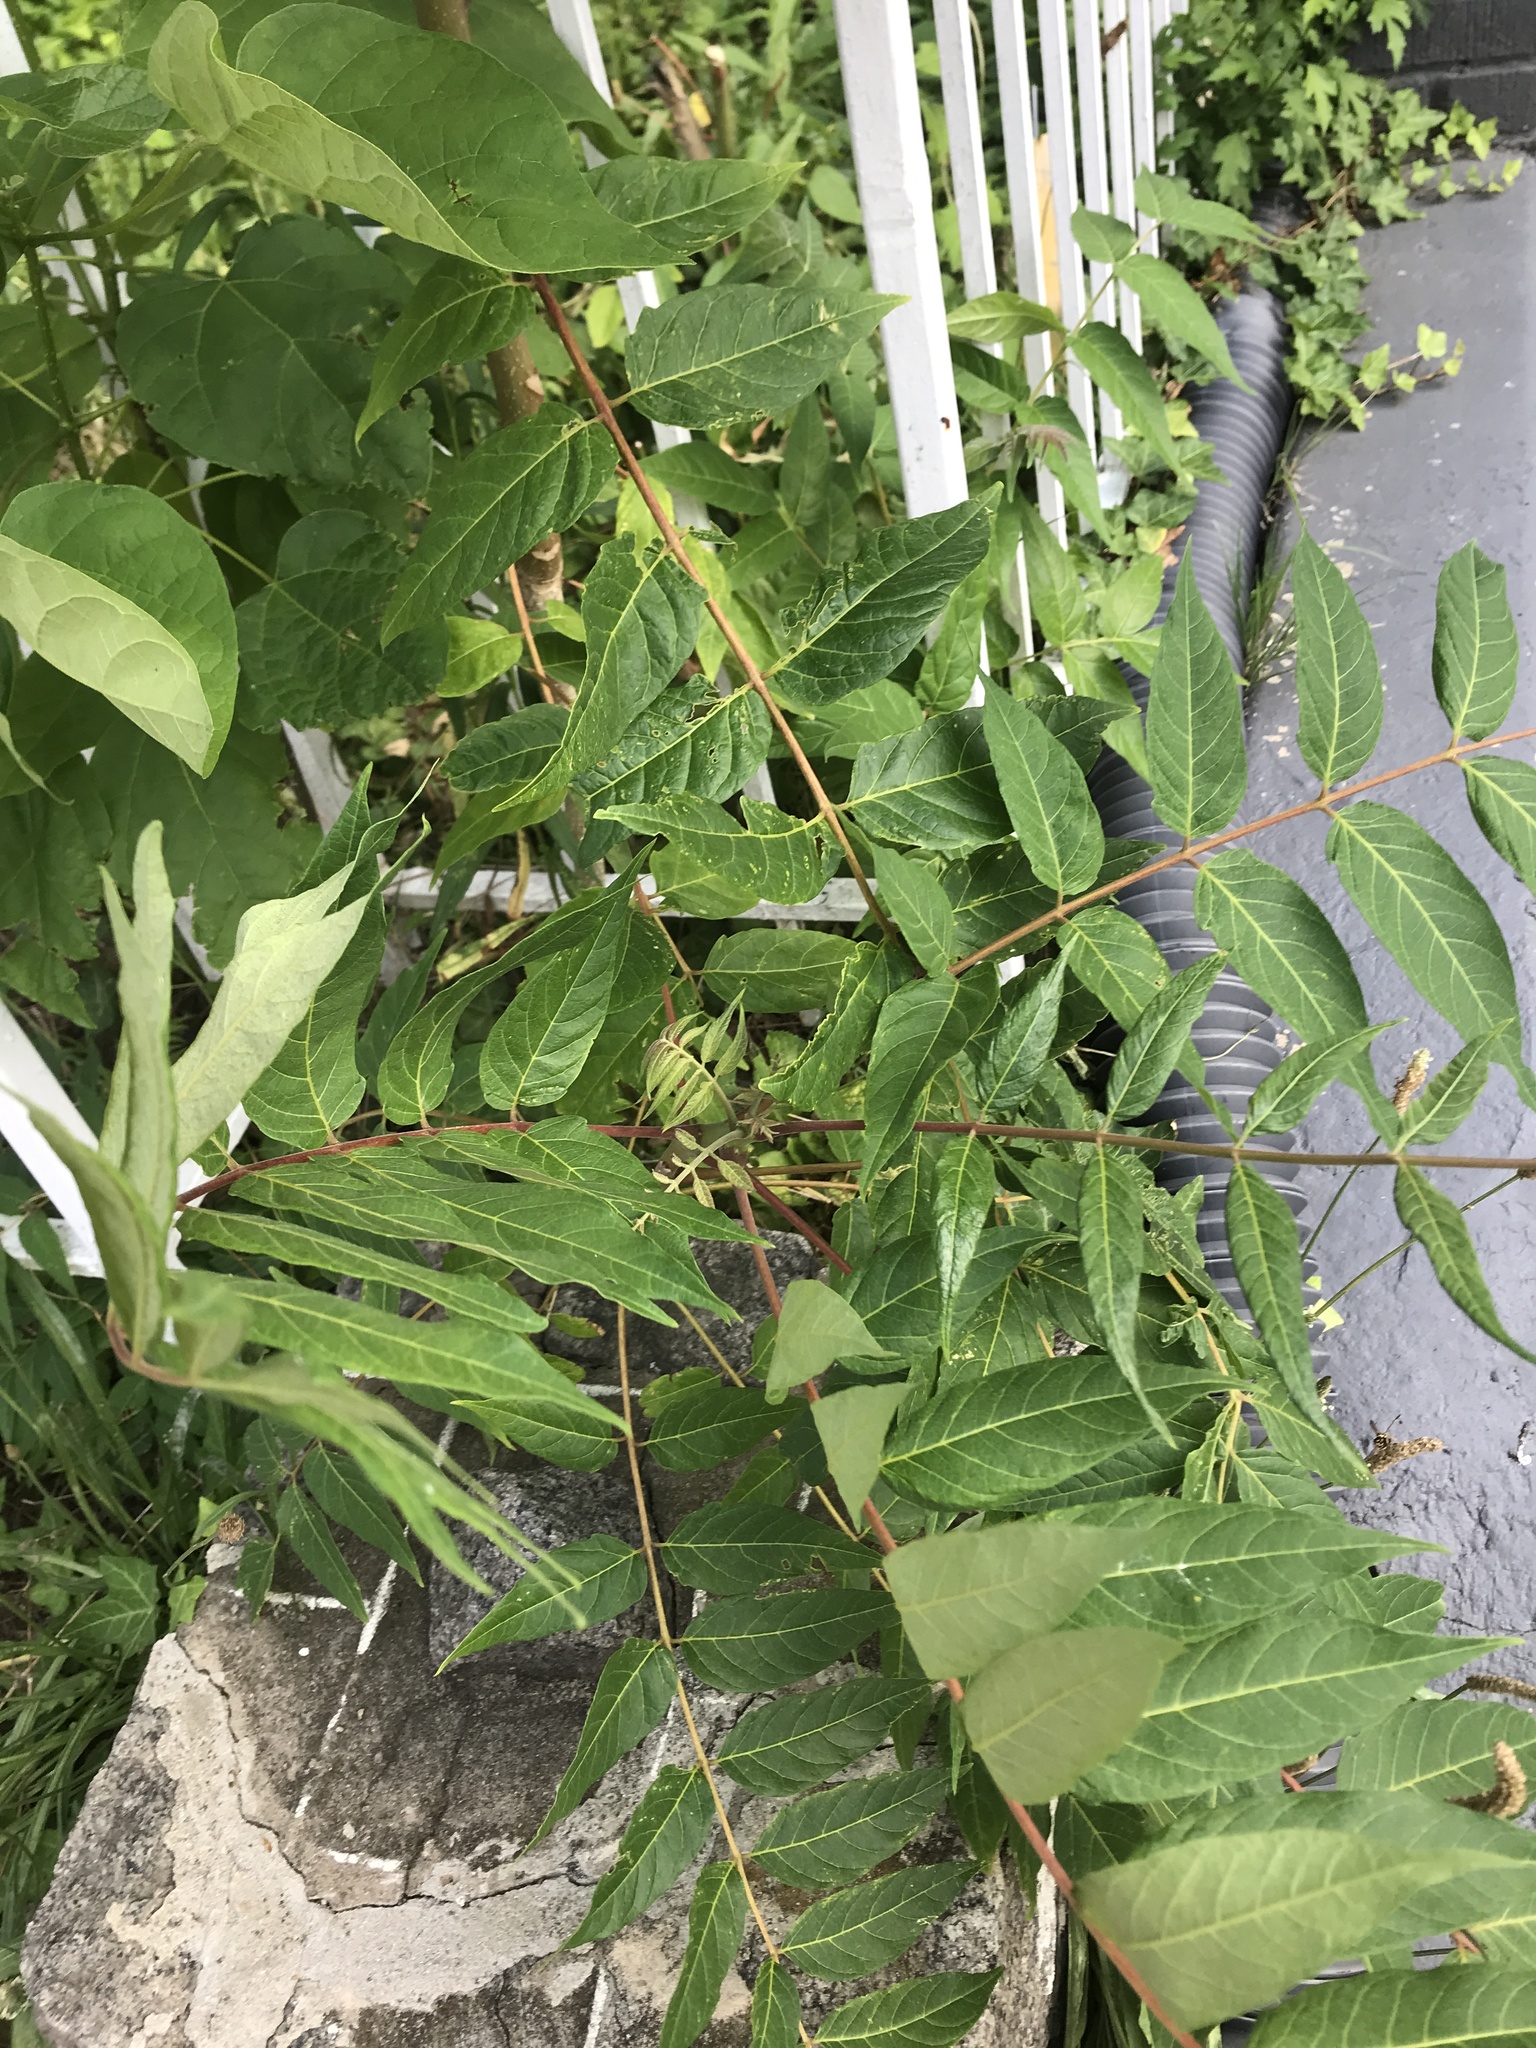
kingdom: Plantae
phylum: Tracheophyta
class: Magnoliopsida
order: Sapindales
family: Simaroubaceae
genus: Ailanthus
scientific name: Ailanthus altissima
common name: Tree-of-heaven
